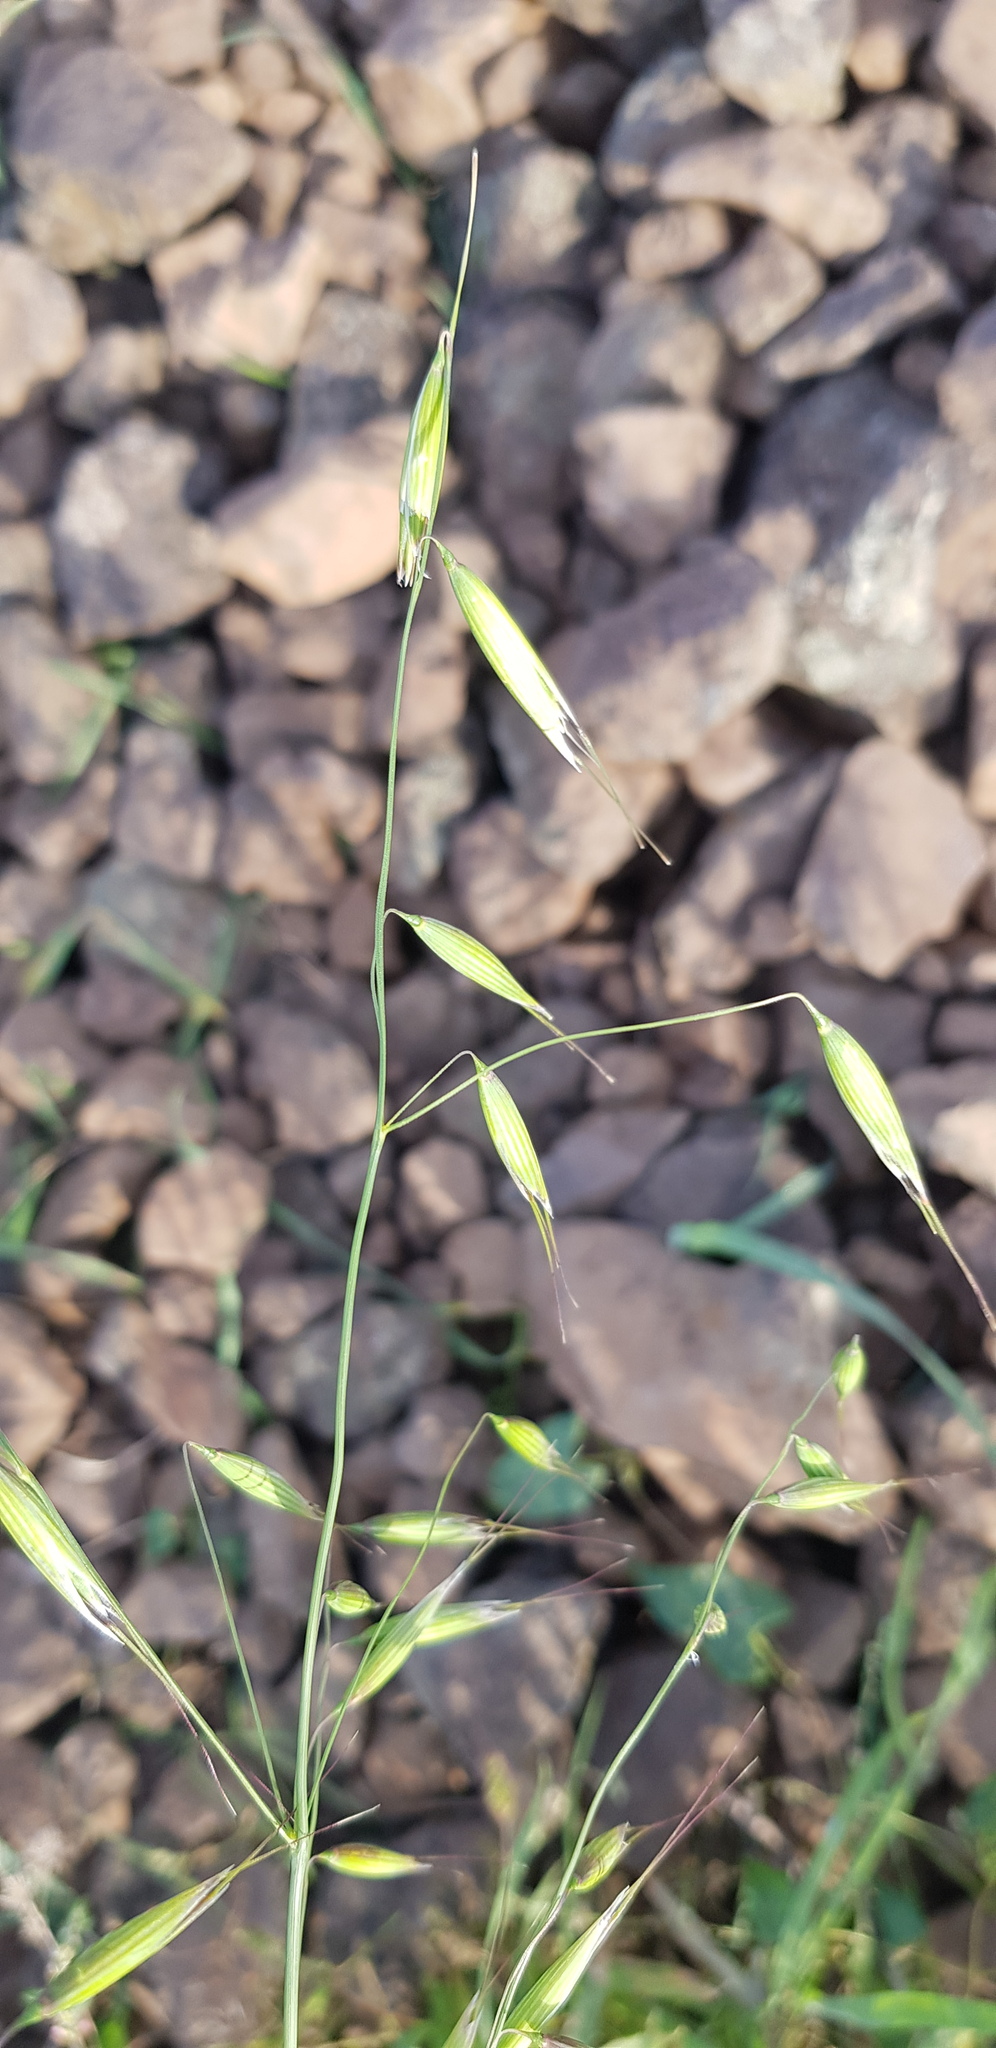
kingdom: Plantae
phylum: Tracheophyta
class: Liliopsida
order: Poales
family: Poaceae
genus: Avena
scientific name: Avena sativa
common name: Oat
